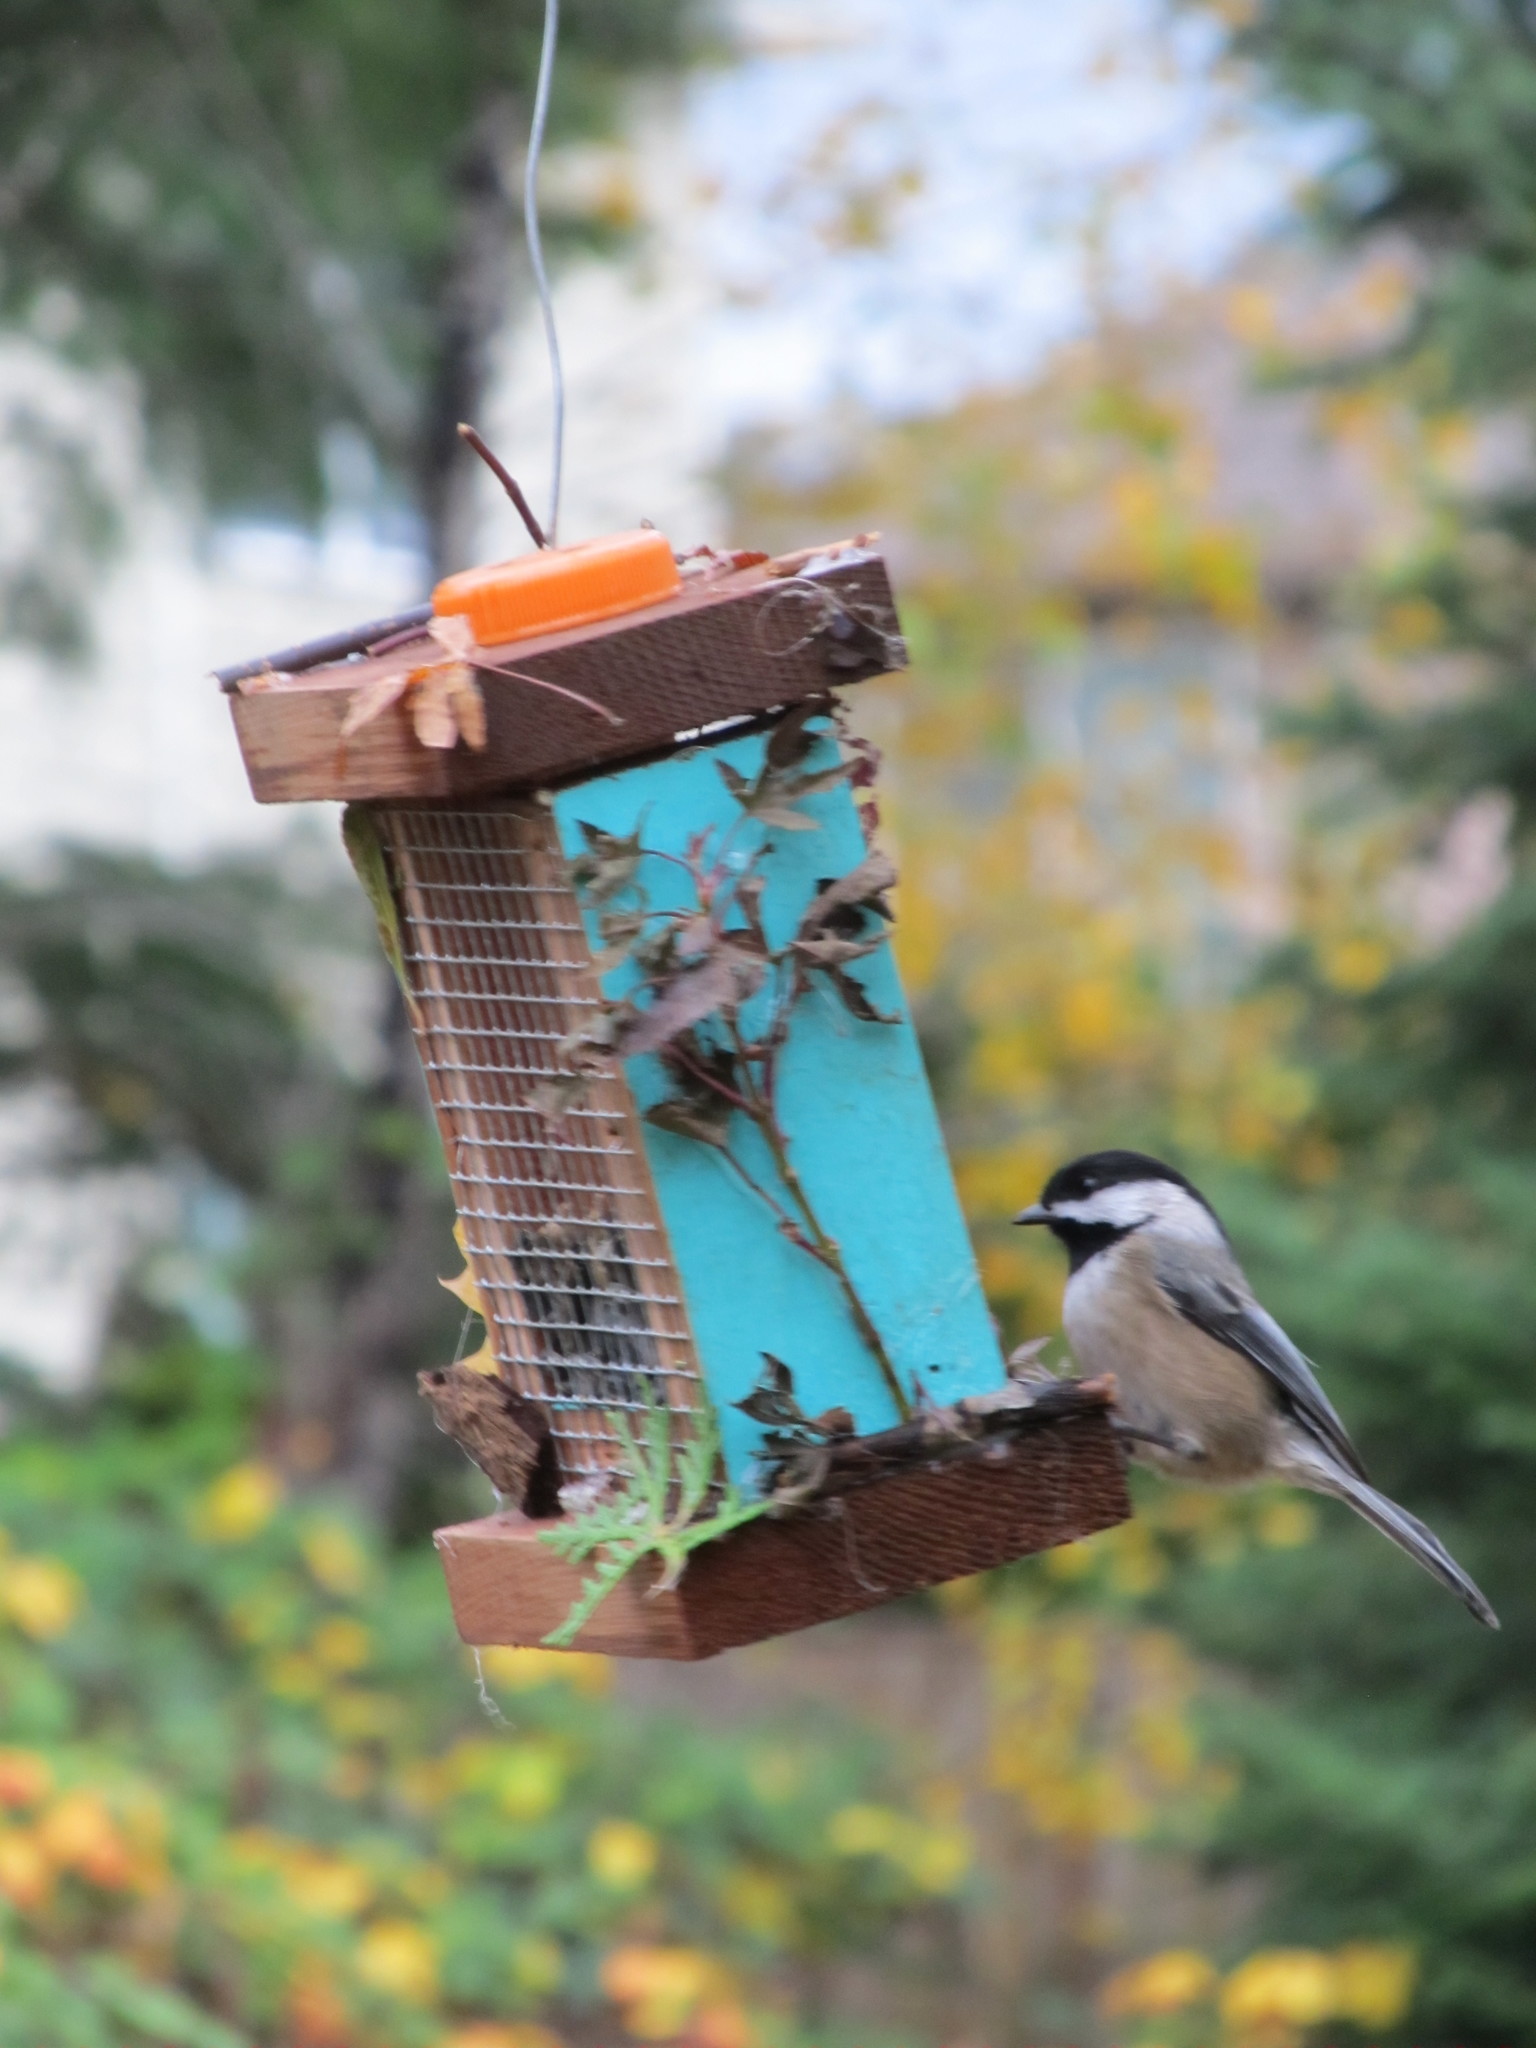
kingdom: Animalia
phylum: Chordata
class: Aves
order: Passeriformes
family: Paridae
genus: Poecile
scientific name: Poecile atricapillus
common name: Black-capped chickadee
